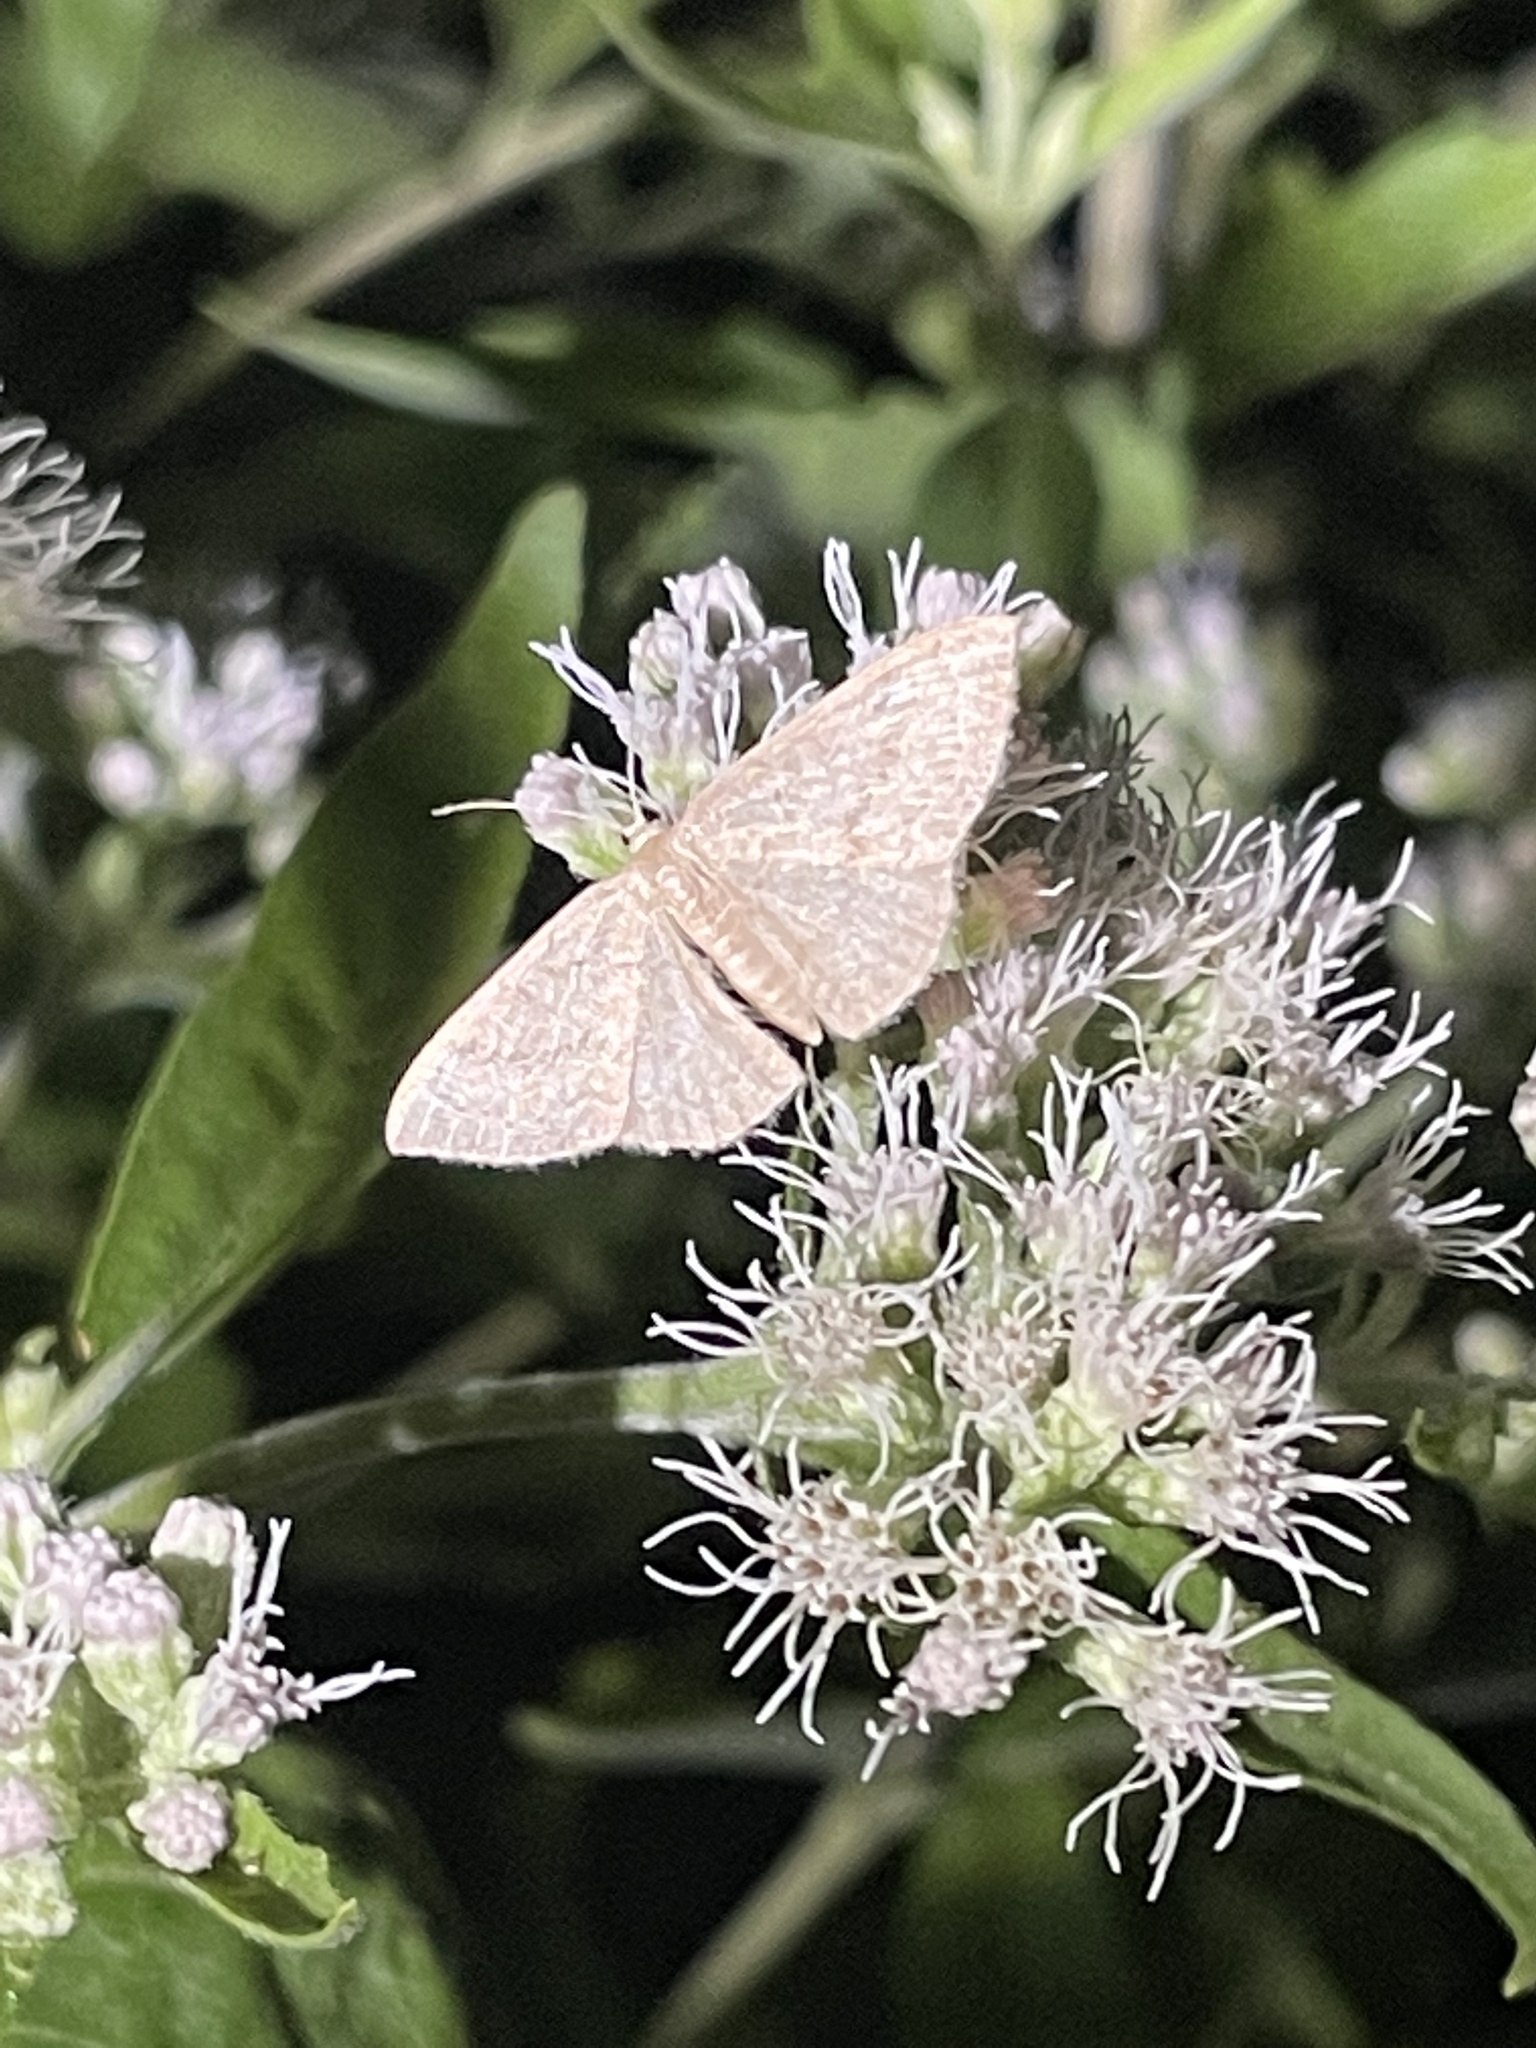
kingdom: Animalia
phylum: Arthropoda
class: Insecta
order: Lepidoptera
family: Geometridae
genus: Pleuroprucha
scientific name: Pleuroprucha insulsaria
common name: Common tan wave
